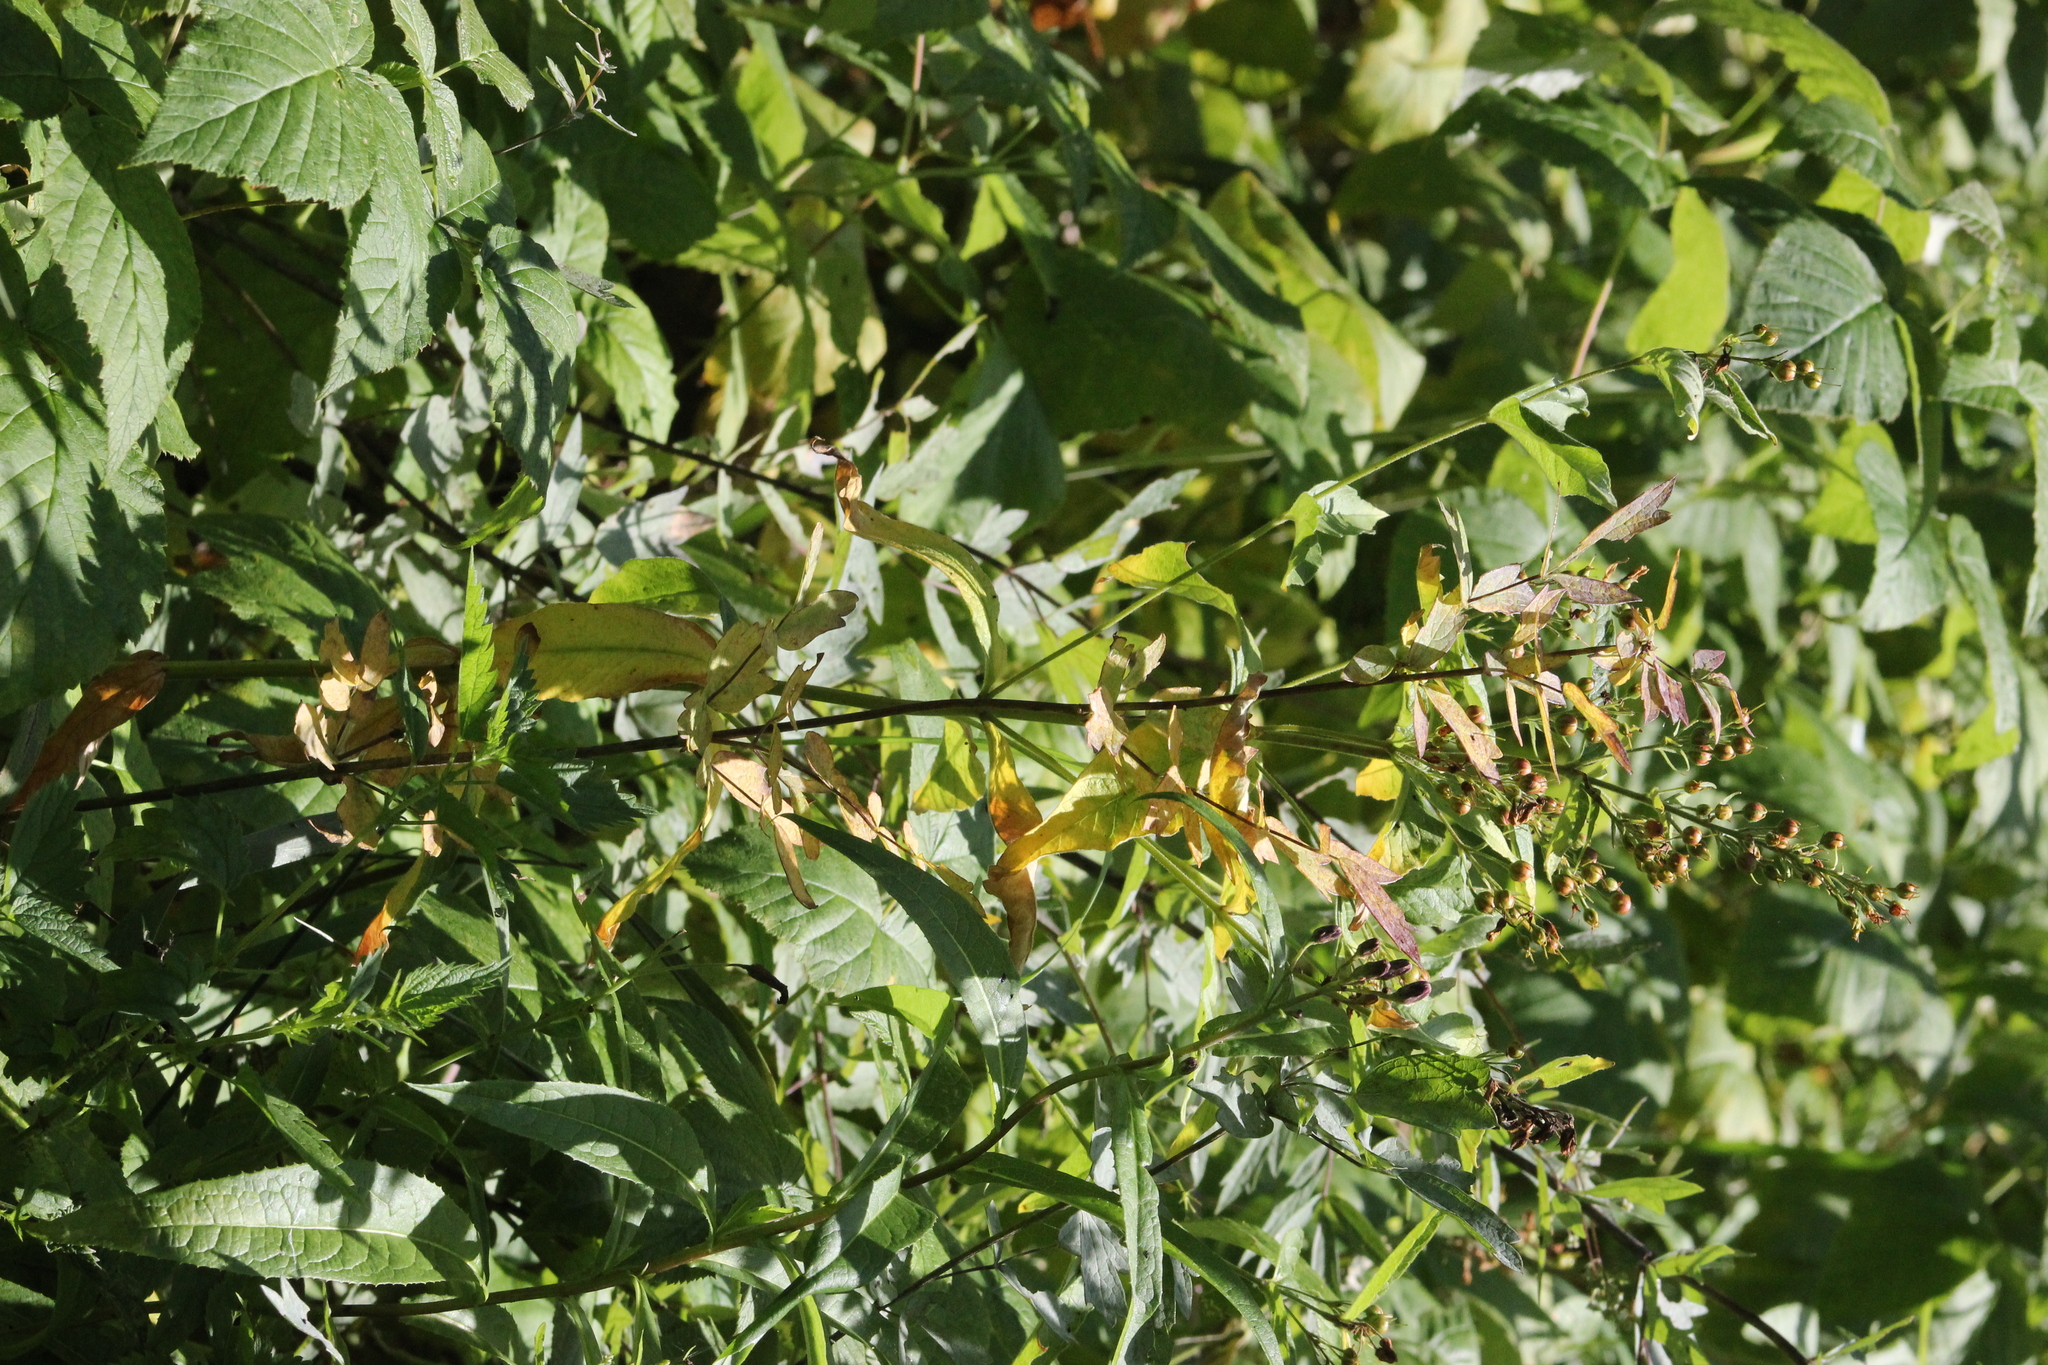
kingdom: Plantae
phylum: Tracheophyta
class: Magnoliopsida
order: Ericales
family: Primulaceae
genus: Lysimachia
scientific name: Lysimachia vulgaris
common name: Yellow loosestrife
